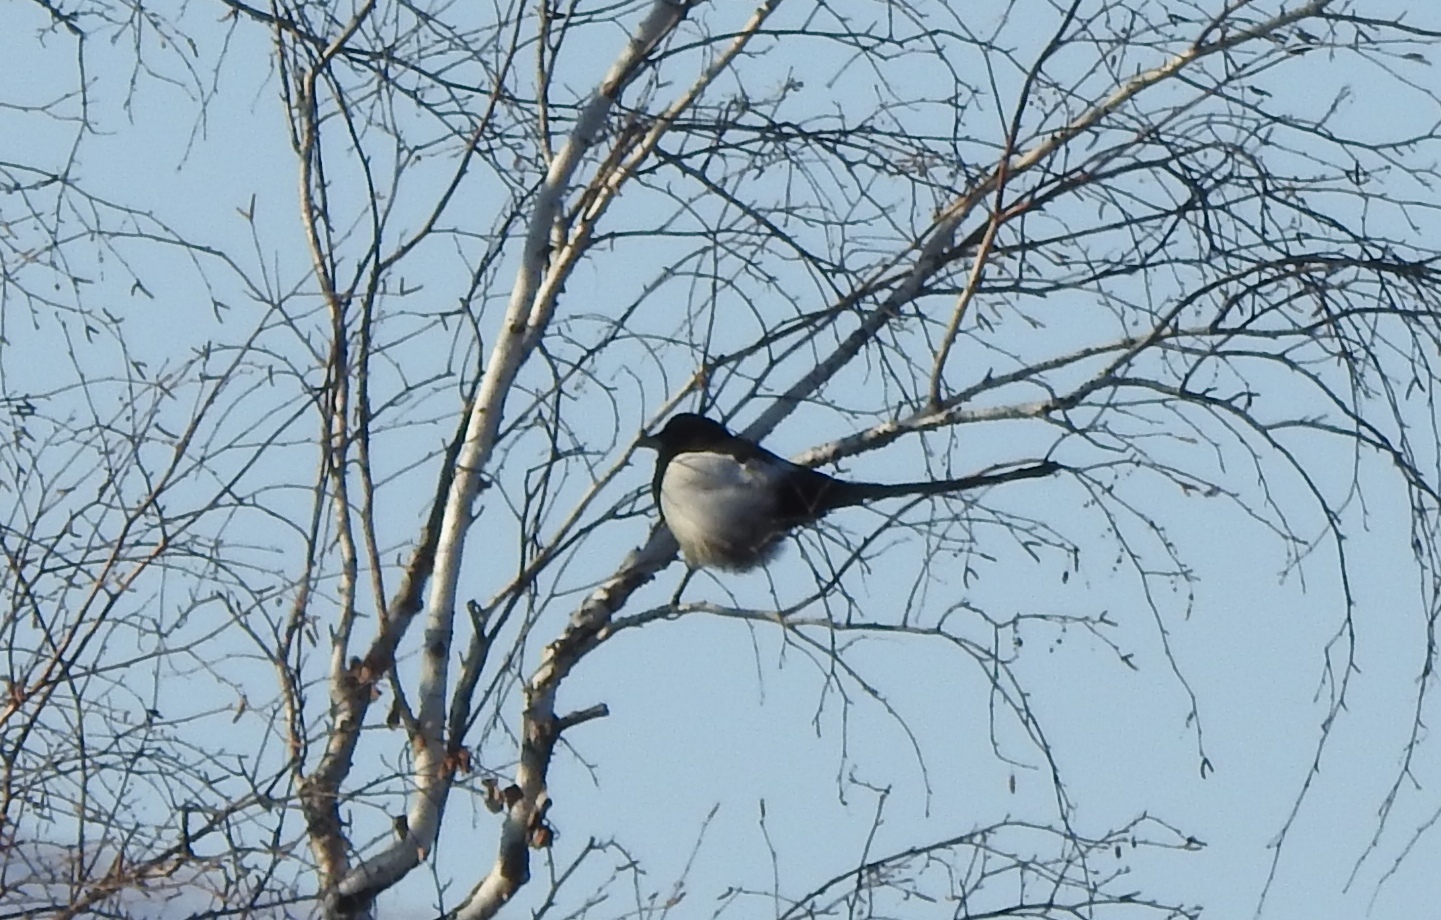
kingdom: Animalia
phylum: Chordata
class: Aves
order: Passeriformes
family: Corvidae
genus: Pica
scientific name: Pica pica
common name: Eurasian magpie
